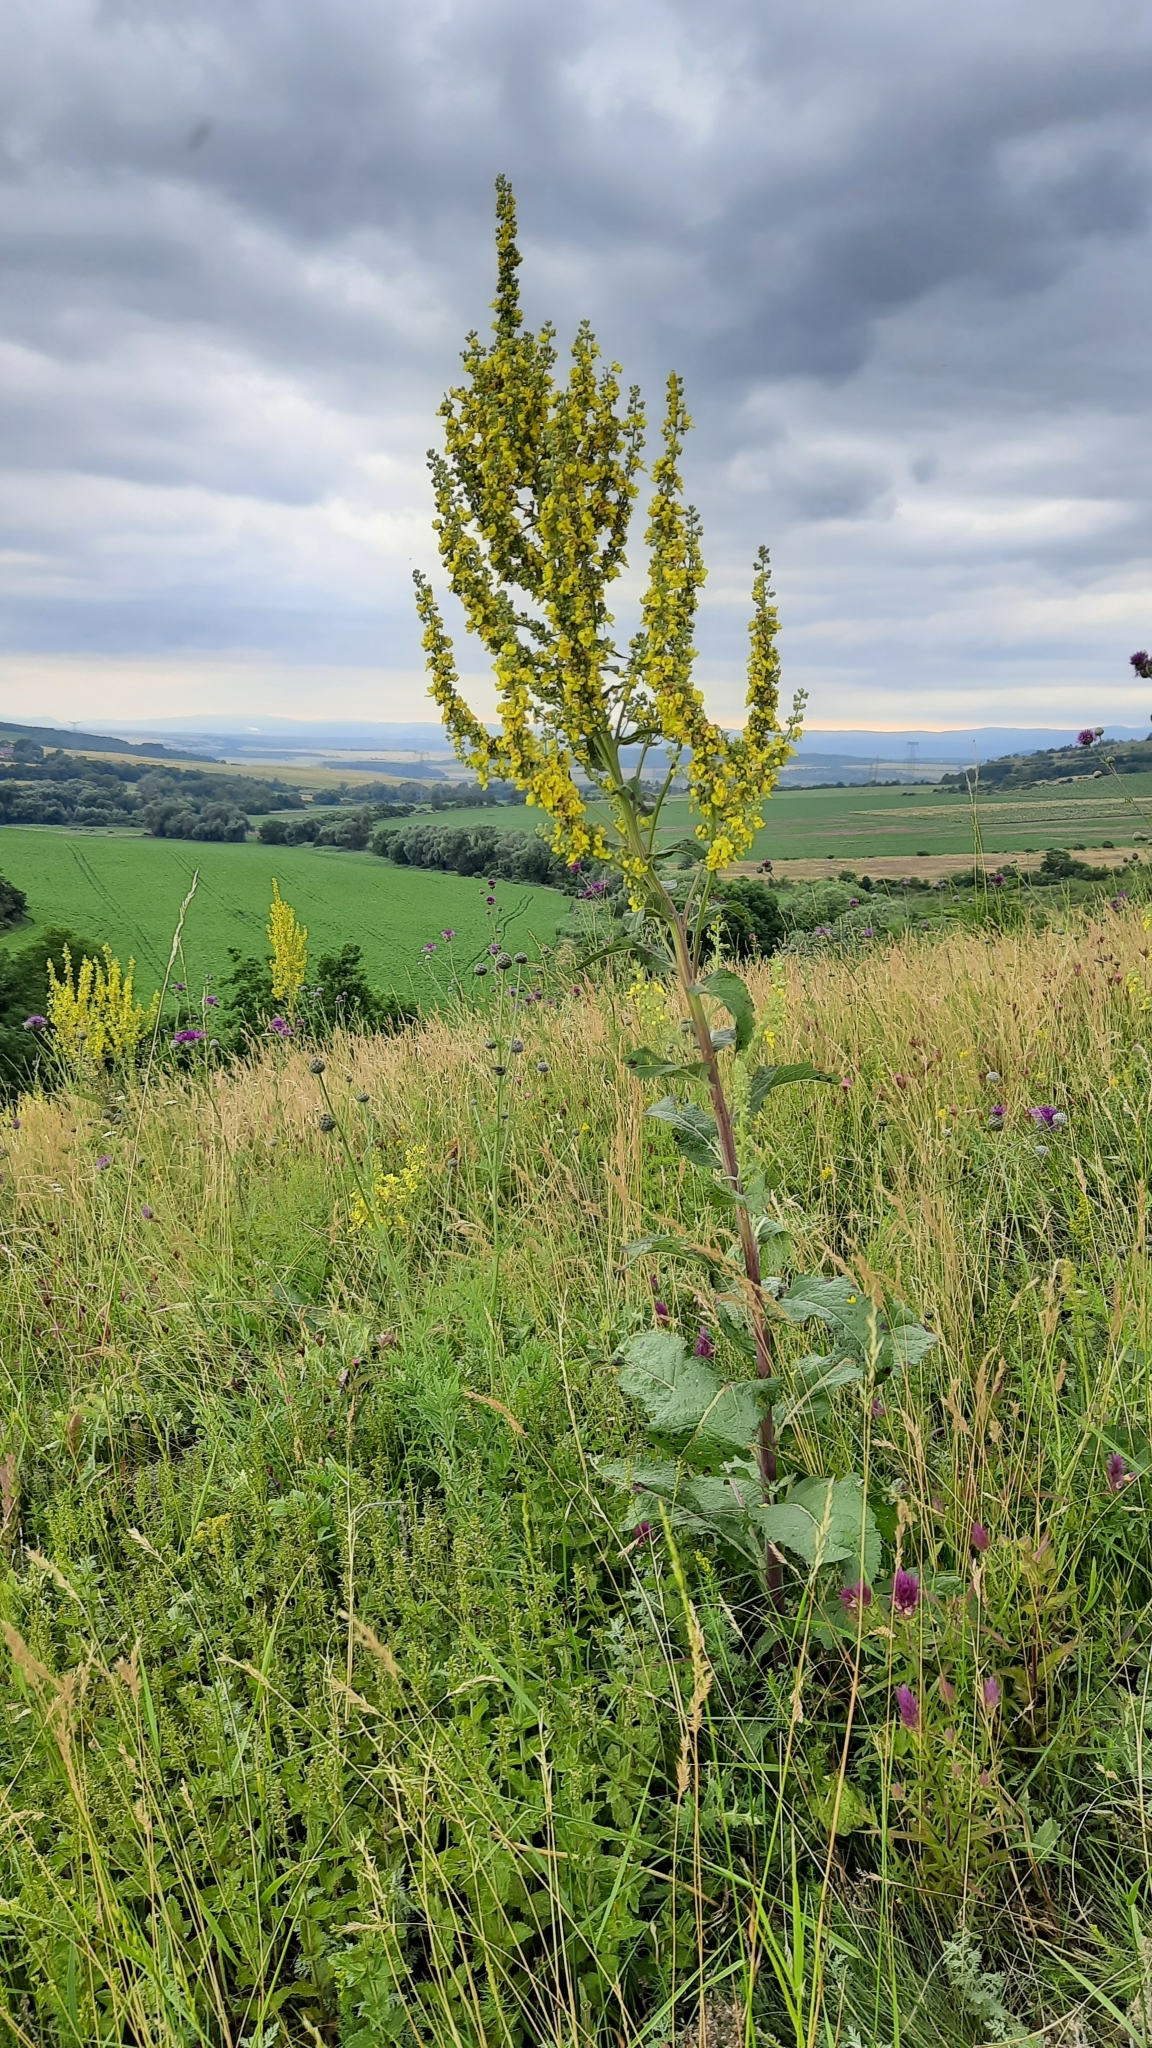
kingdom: Plantae
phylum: Tracheophyta
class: Magnoliopsida
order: Lamiales
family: Scrophulariaceae
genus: Verbascum
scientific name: Verbascum lychnitis
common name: White mullein
